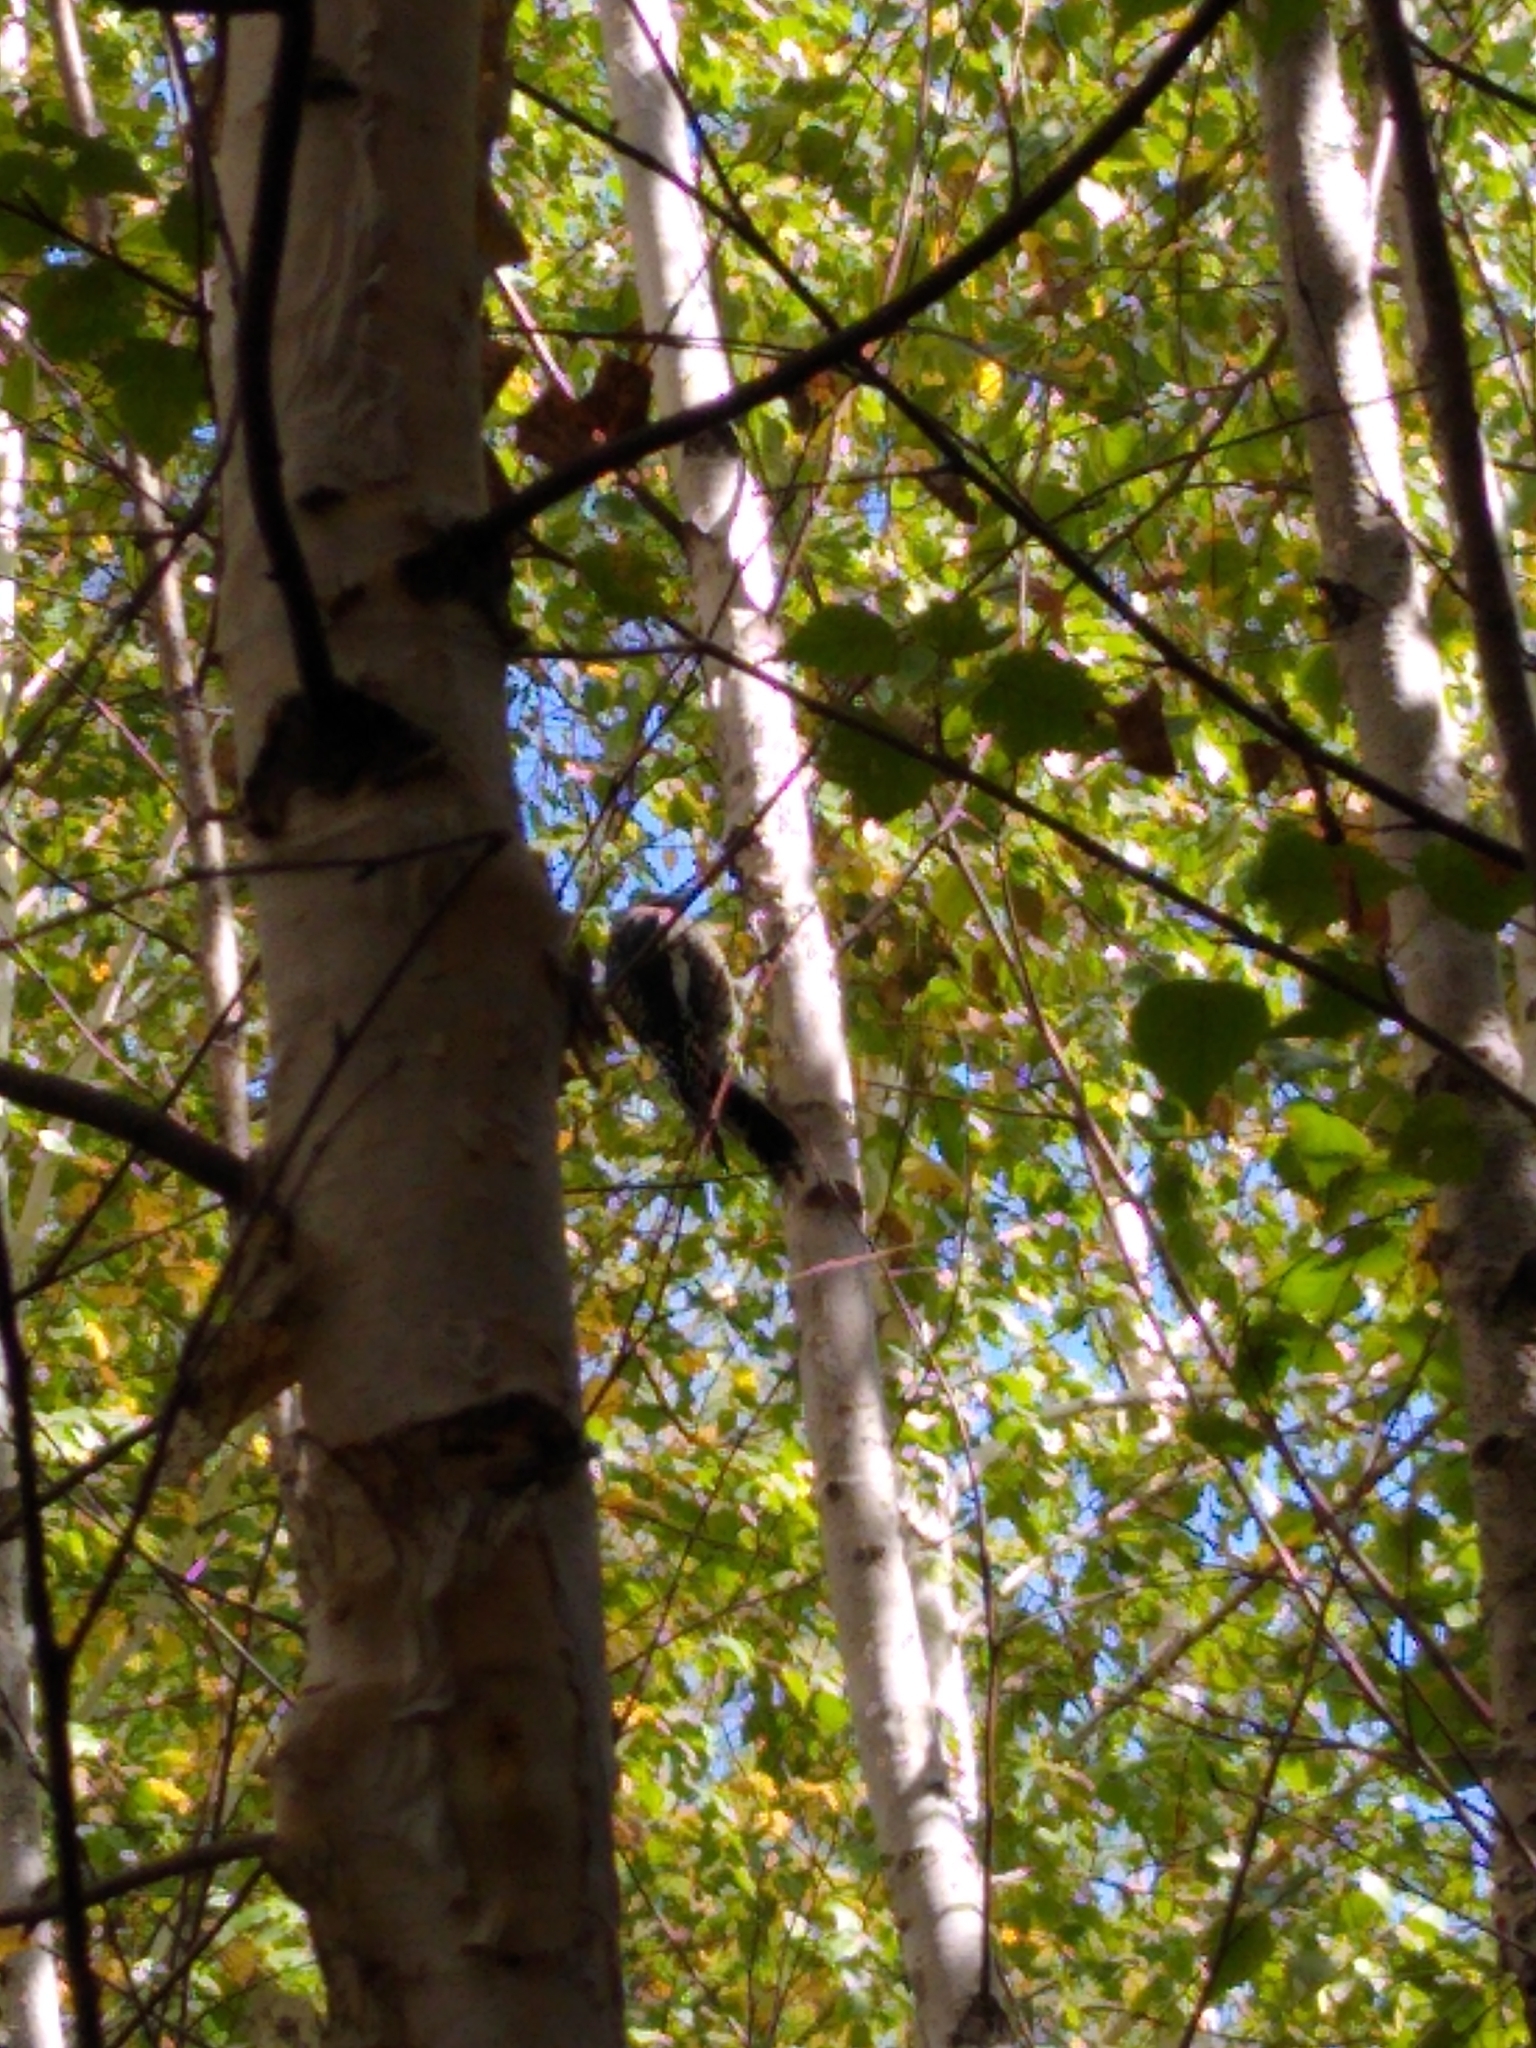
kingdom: Animalia
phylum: Chordata
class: Aves
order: Piciformes
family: Picidae
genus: Sphyrapicus
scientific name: Sphyrapicus varius
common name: Yellow-bellied sapsucker
